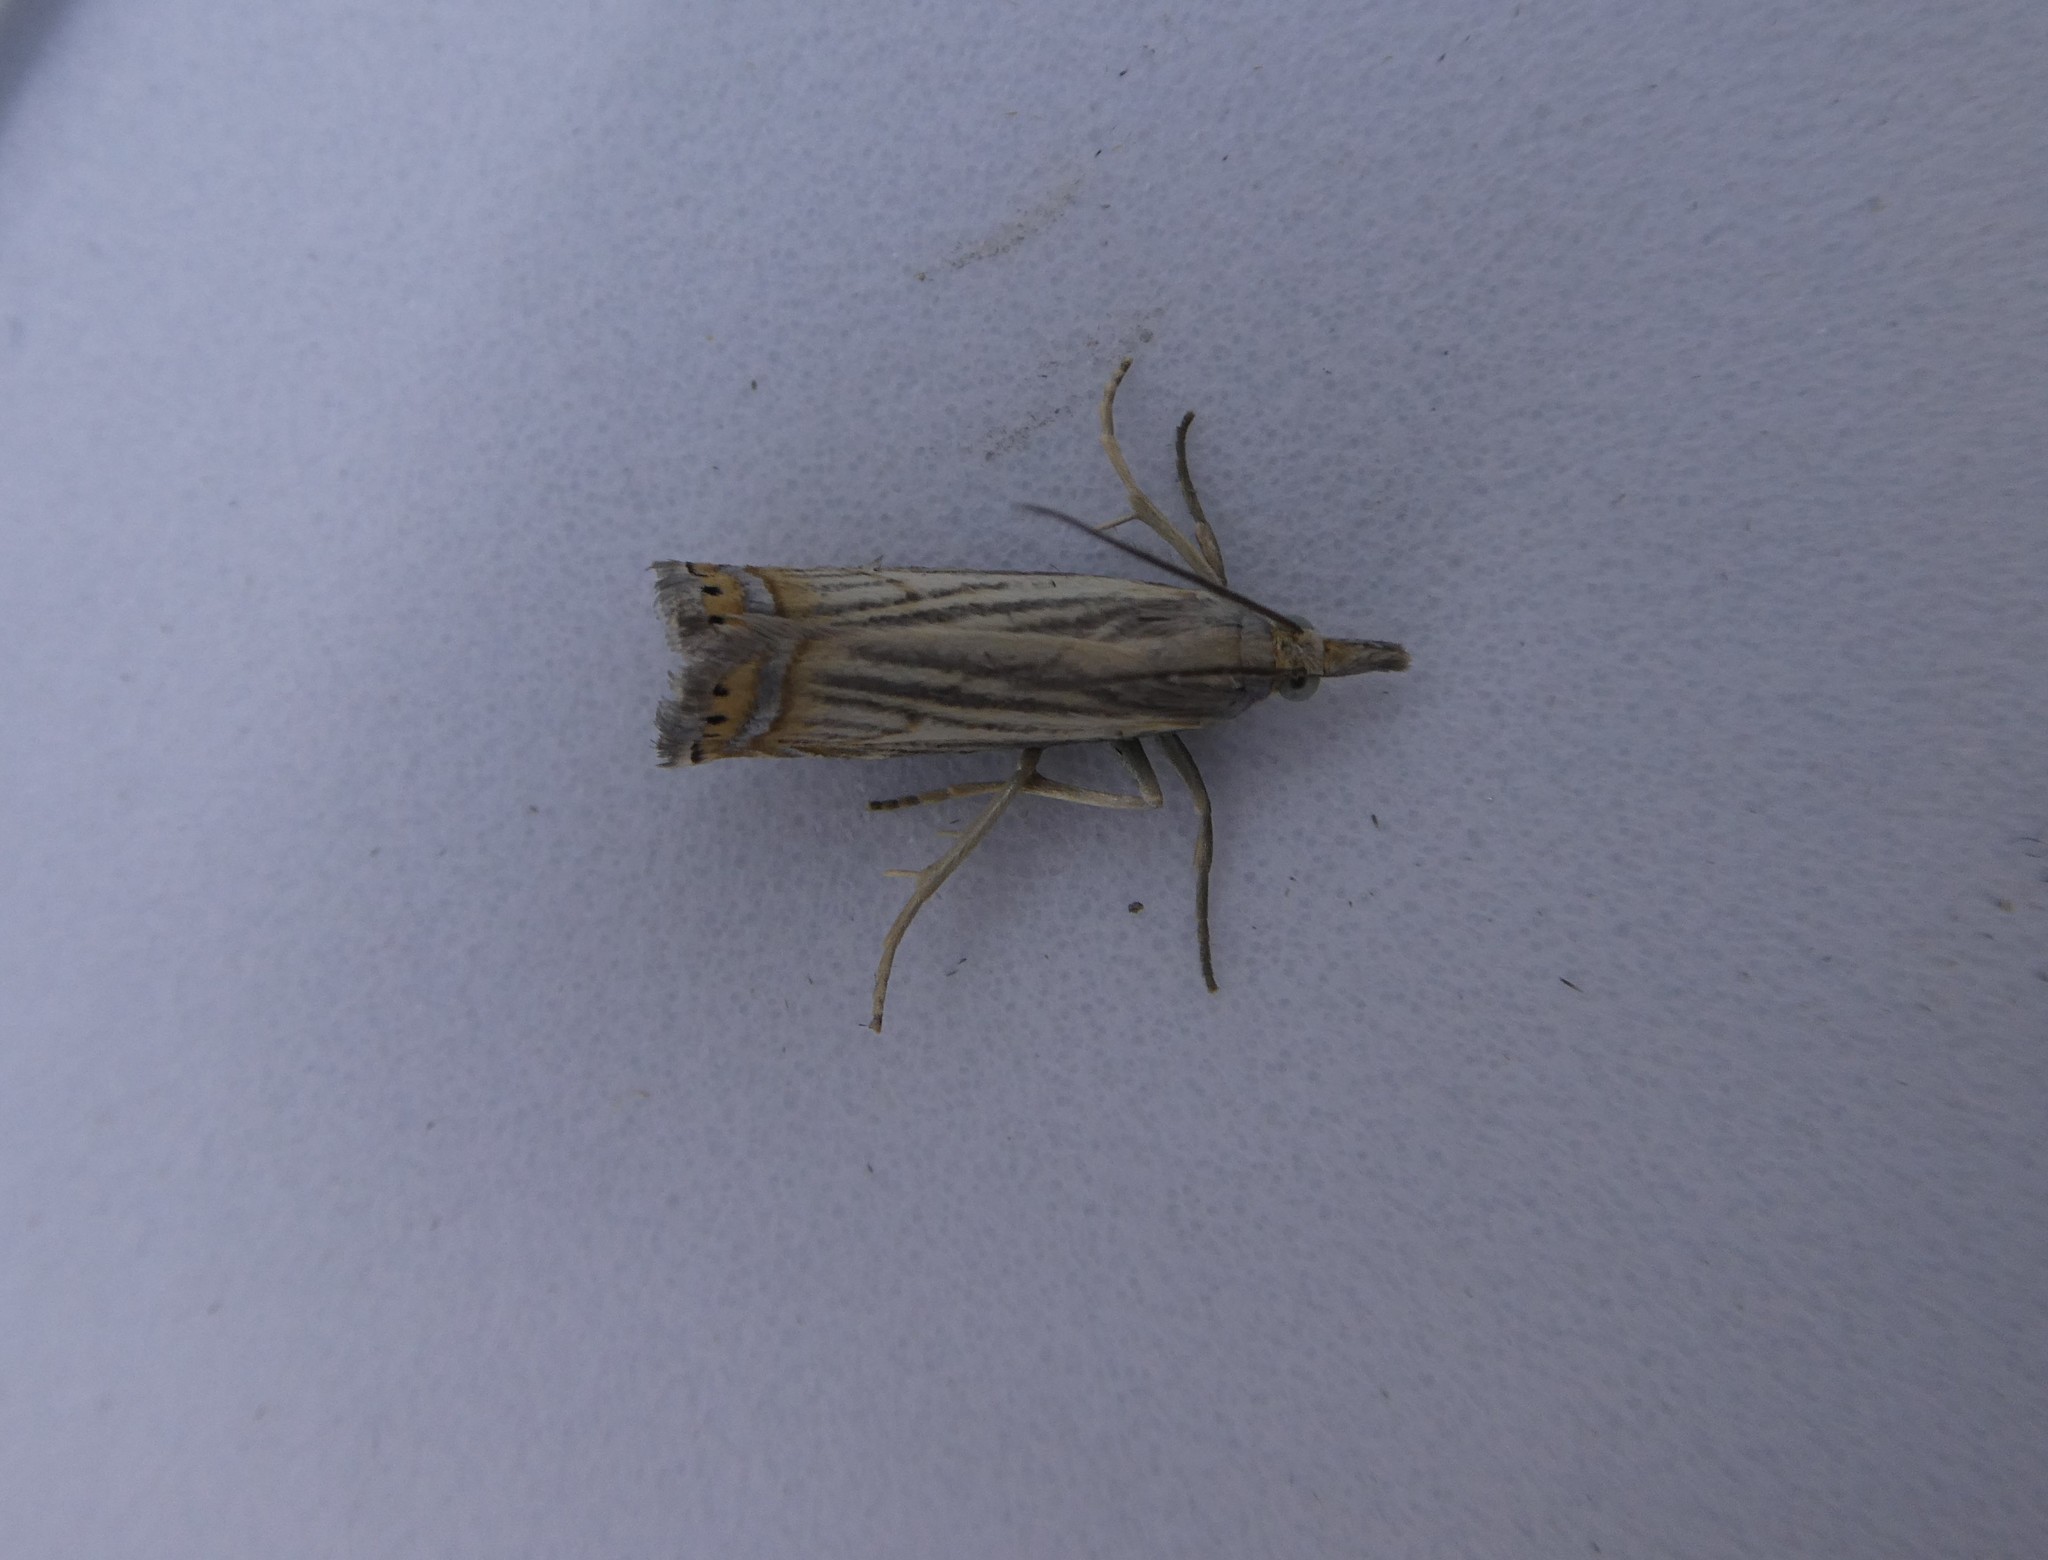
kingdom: Animalia
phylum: Arthropoda
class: Insecta
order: Lepidoptera
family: Crambidae
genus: Chrysoteuchia
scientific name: Chrysoteuchia topiarius
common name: Topiary grass-veneer
